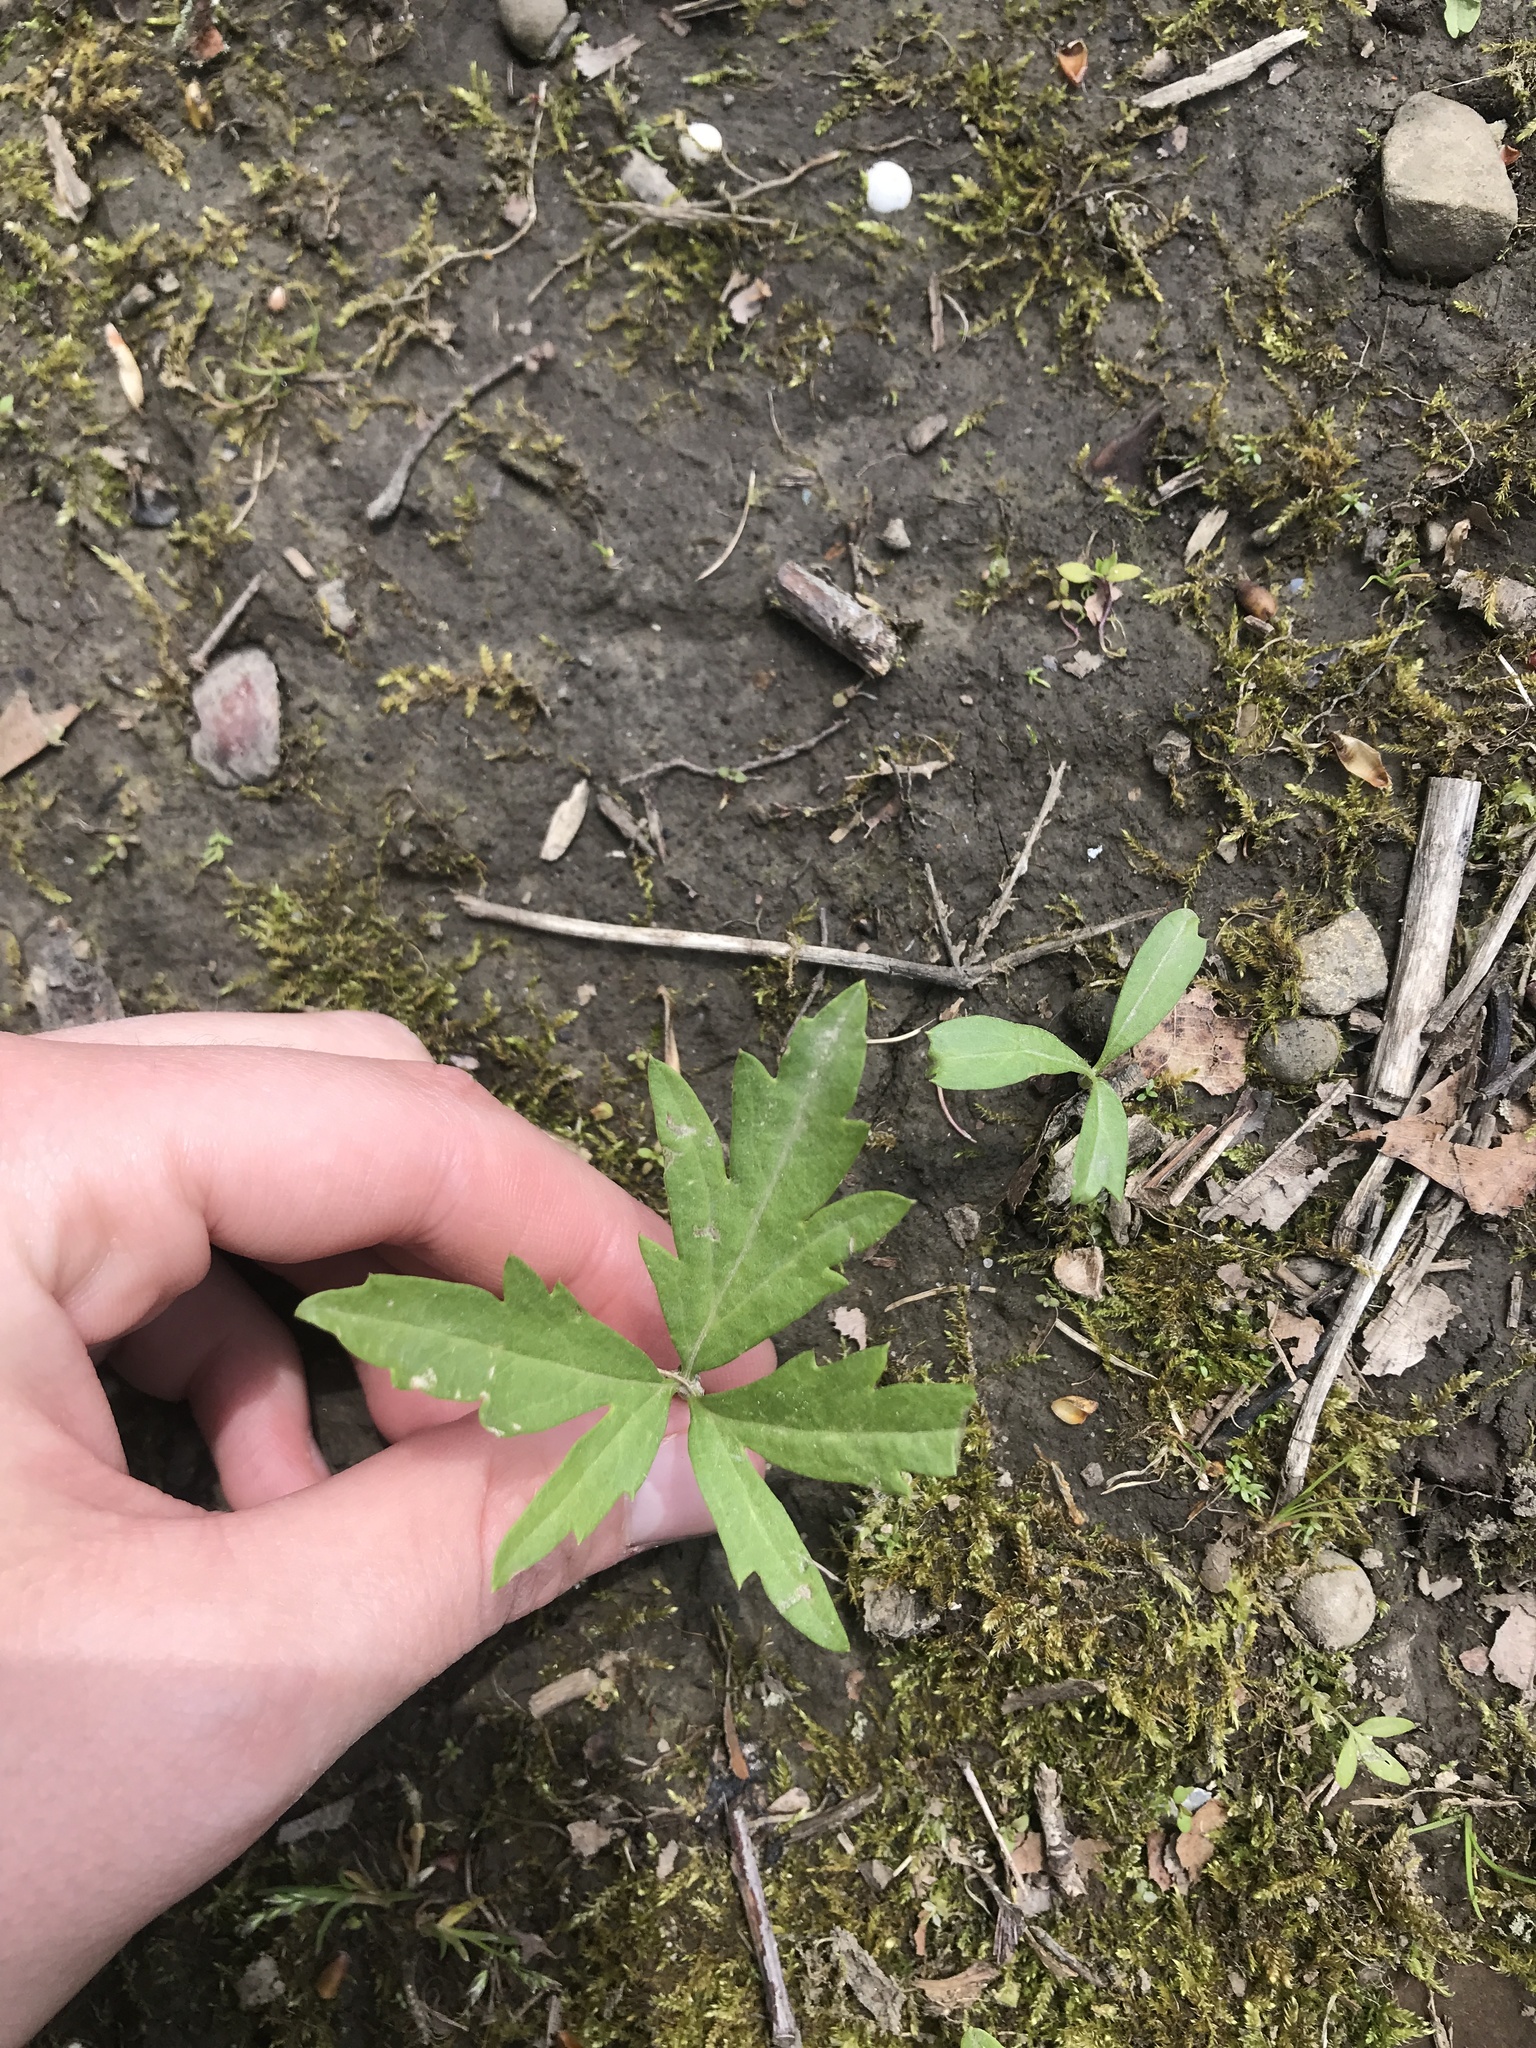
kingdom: Plantae
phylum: Tracheophyta
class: Magnoliopsida
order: Brassicales
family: Brassicaceae
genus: Cardamine
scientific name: Cardamine concatenata
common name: Cut-leaf toothcup
